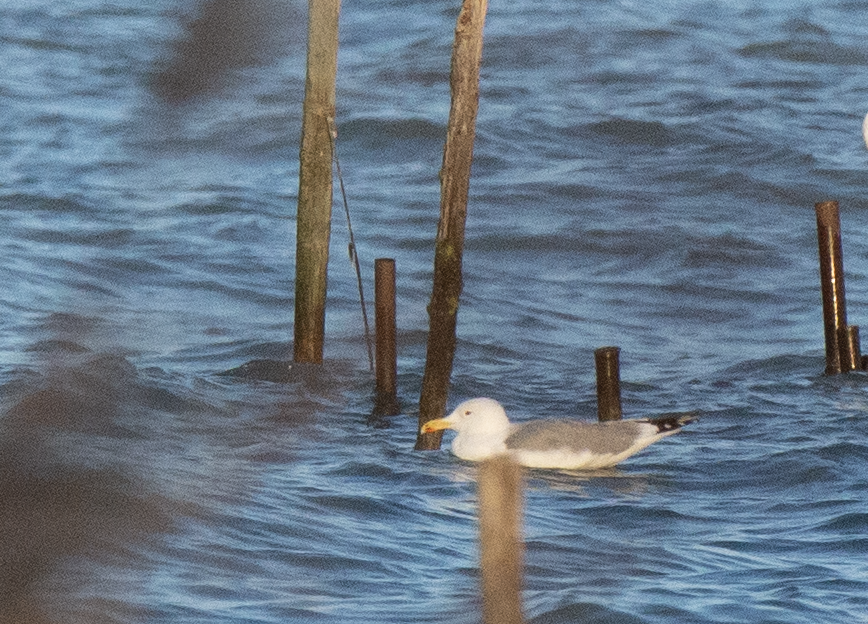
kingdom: Animalia
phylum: Chordata
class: Aves
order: Charadriiformes
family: Laridae
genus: Larus
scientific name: Larus cachinnans
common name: Caspian gull
